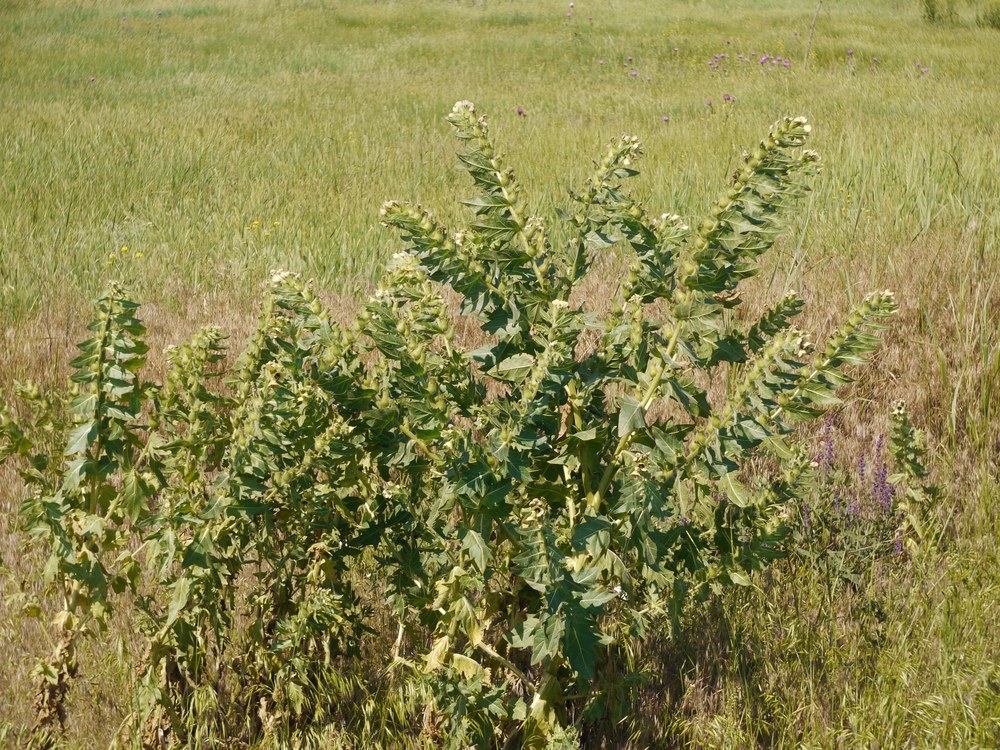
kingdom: Plantae
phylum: Tracheophyta
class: Magnoliopsida
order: Solanales
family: Solanaceae
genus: Hyoscyamus
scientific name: Hyoscyamus niger
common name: Henbane
